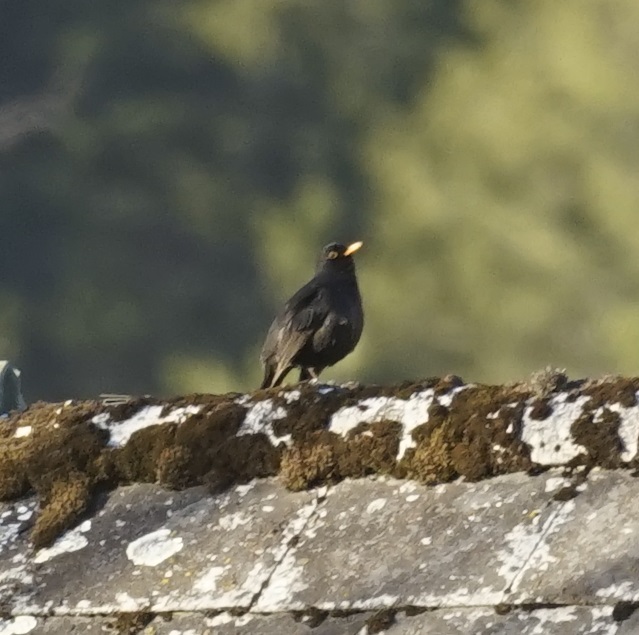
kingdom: Animalia
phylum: Chordata
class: Aves
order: Passeriformes
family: Turdidae
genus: Turdus
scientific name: Turdus merula
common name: Common blackbird
